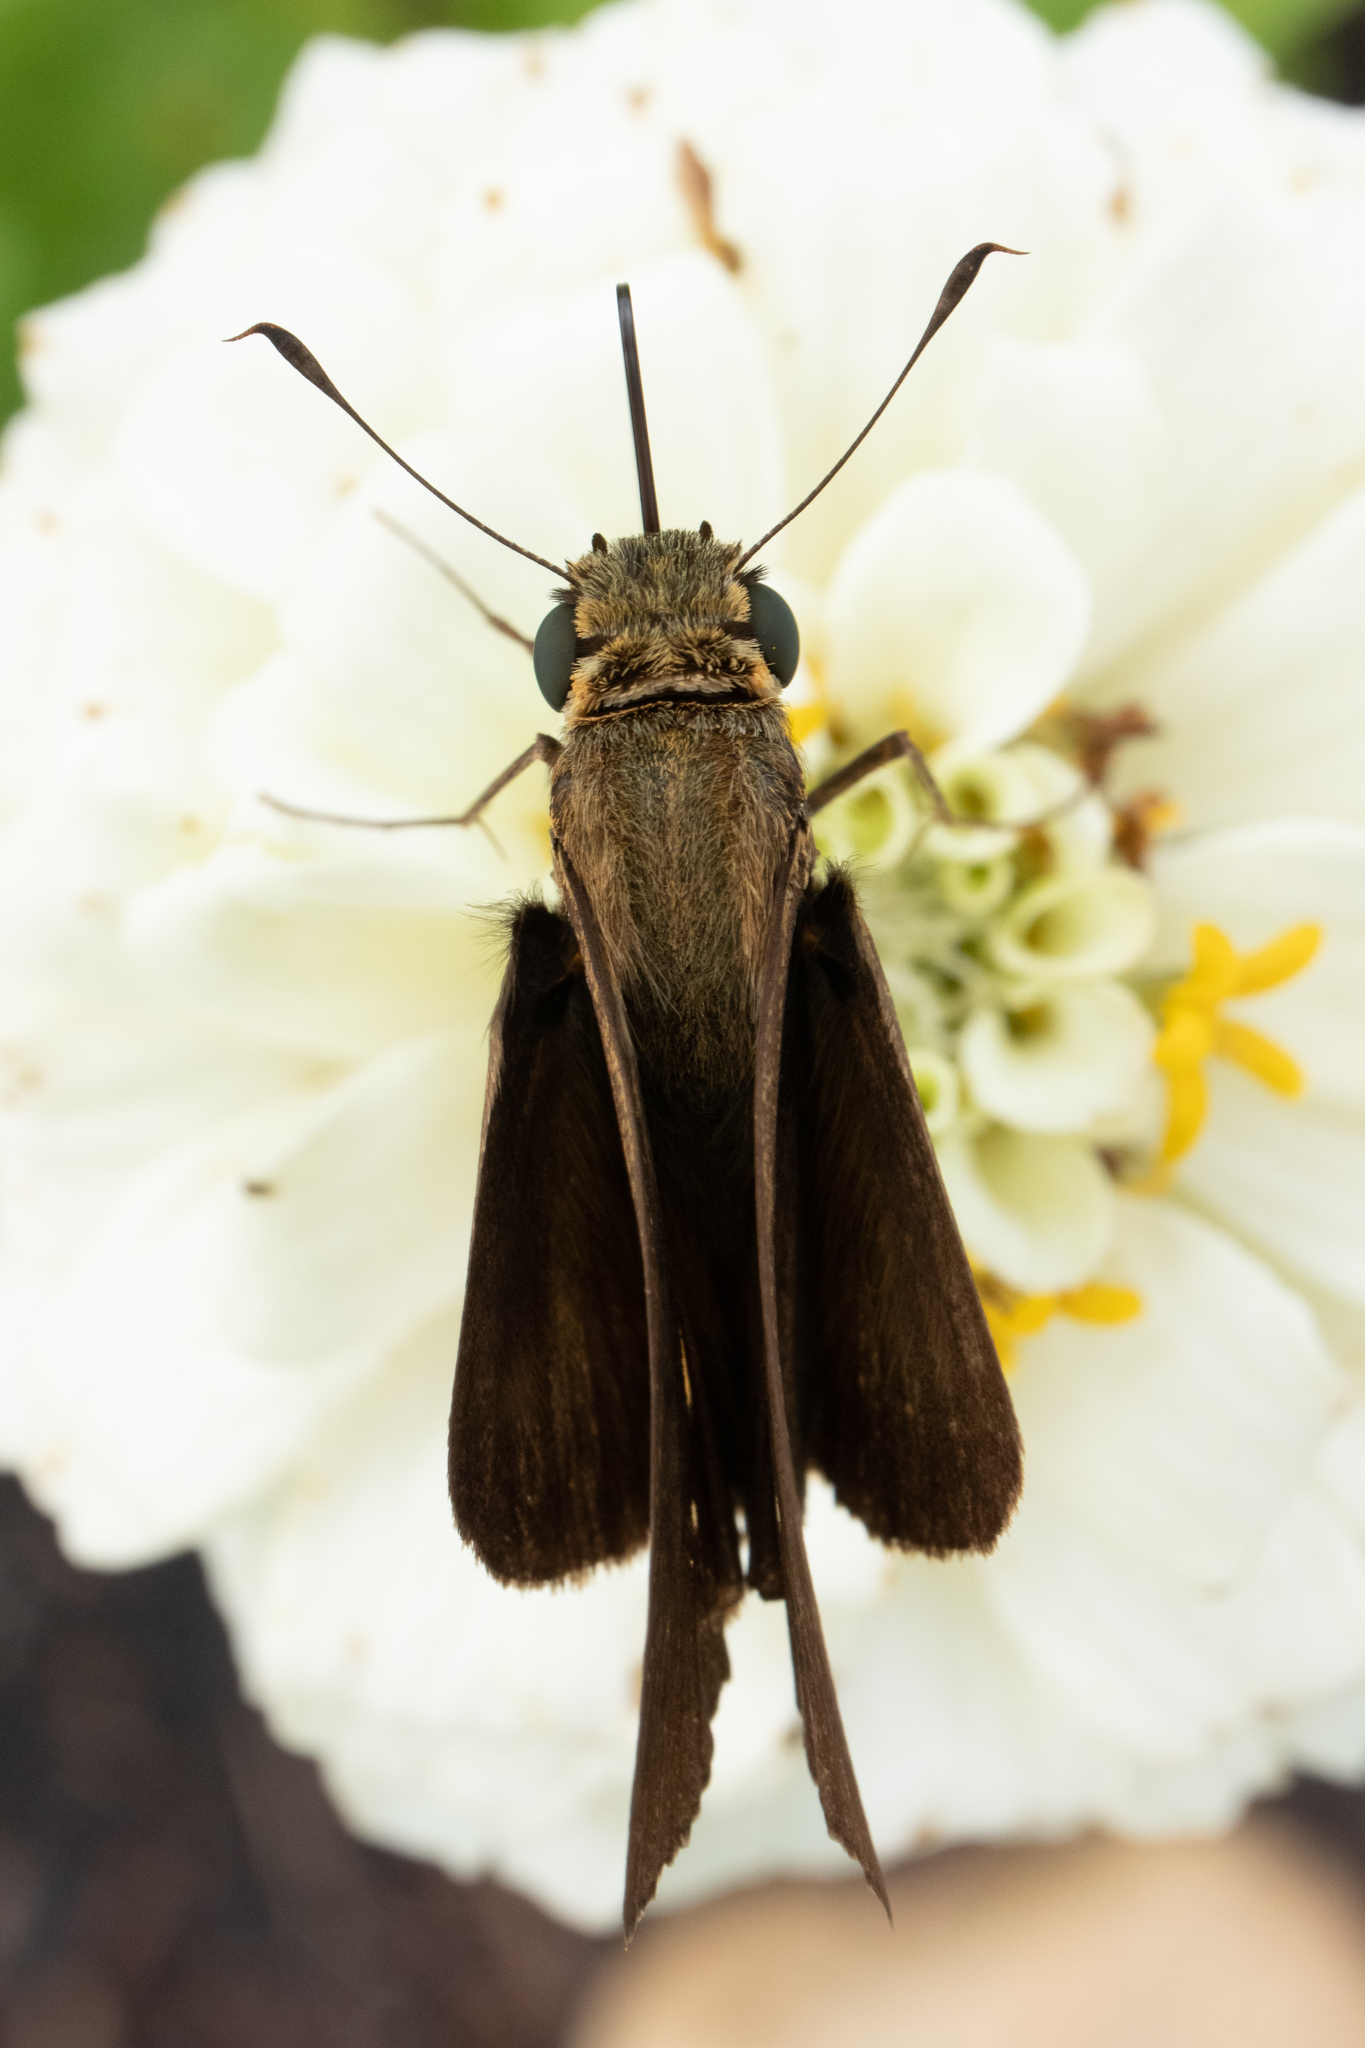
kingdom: Animalia
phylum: Arthropoda
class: Insecta
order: Lepidoptera
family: Hesperiidae
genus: Panoquina
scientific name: Panoquina ocola
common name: Ocola skipper
